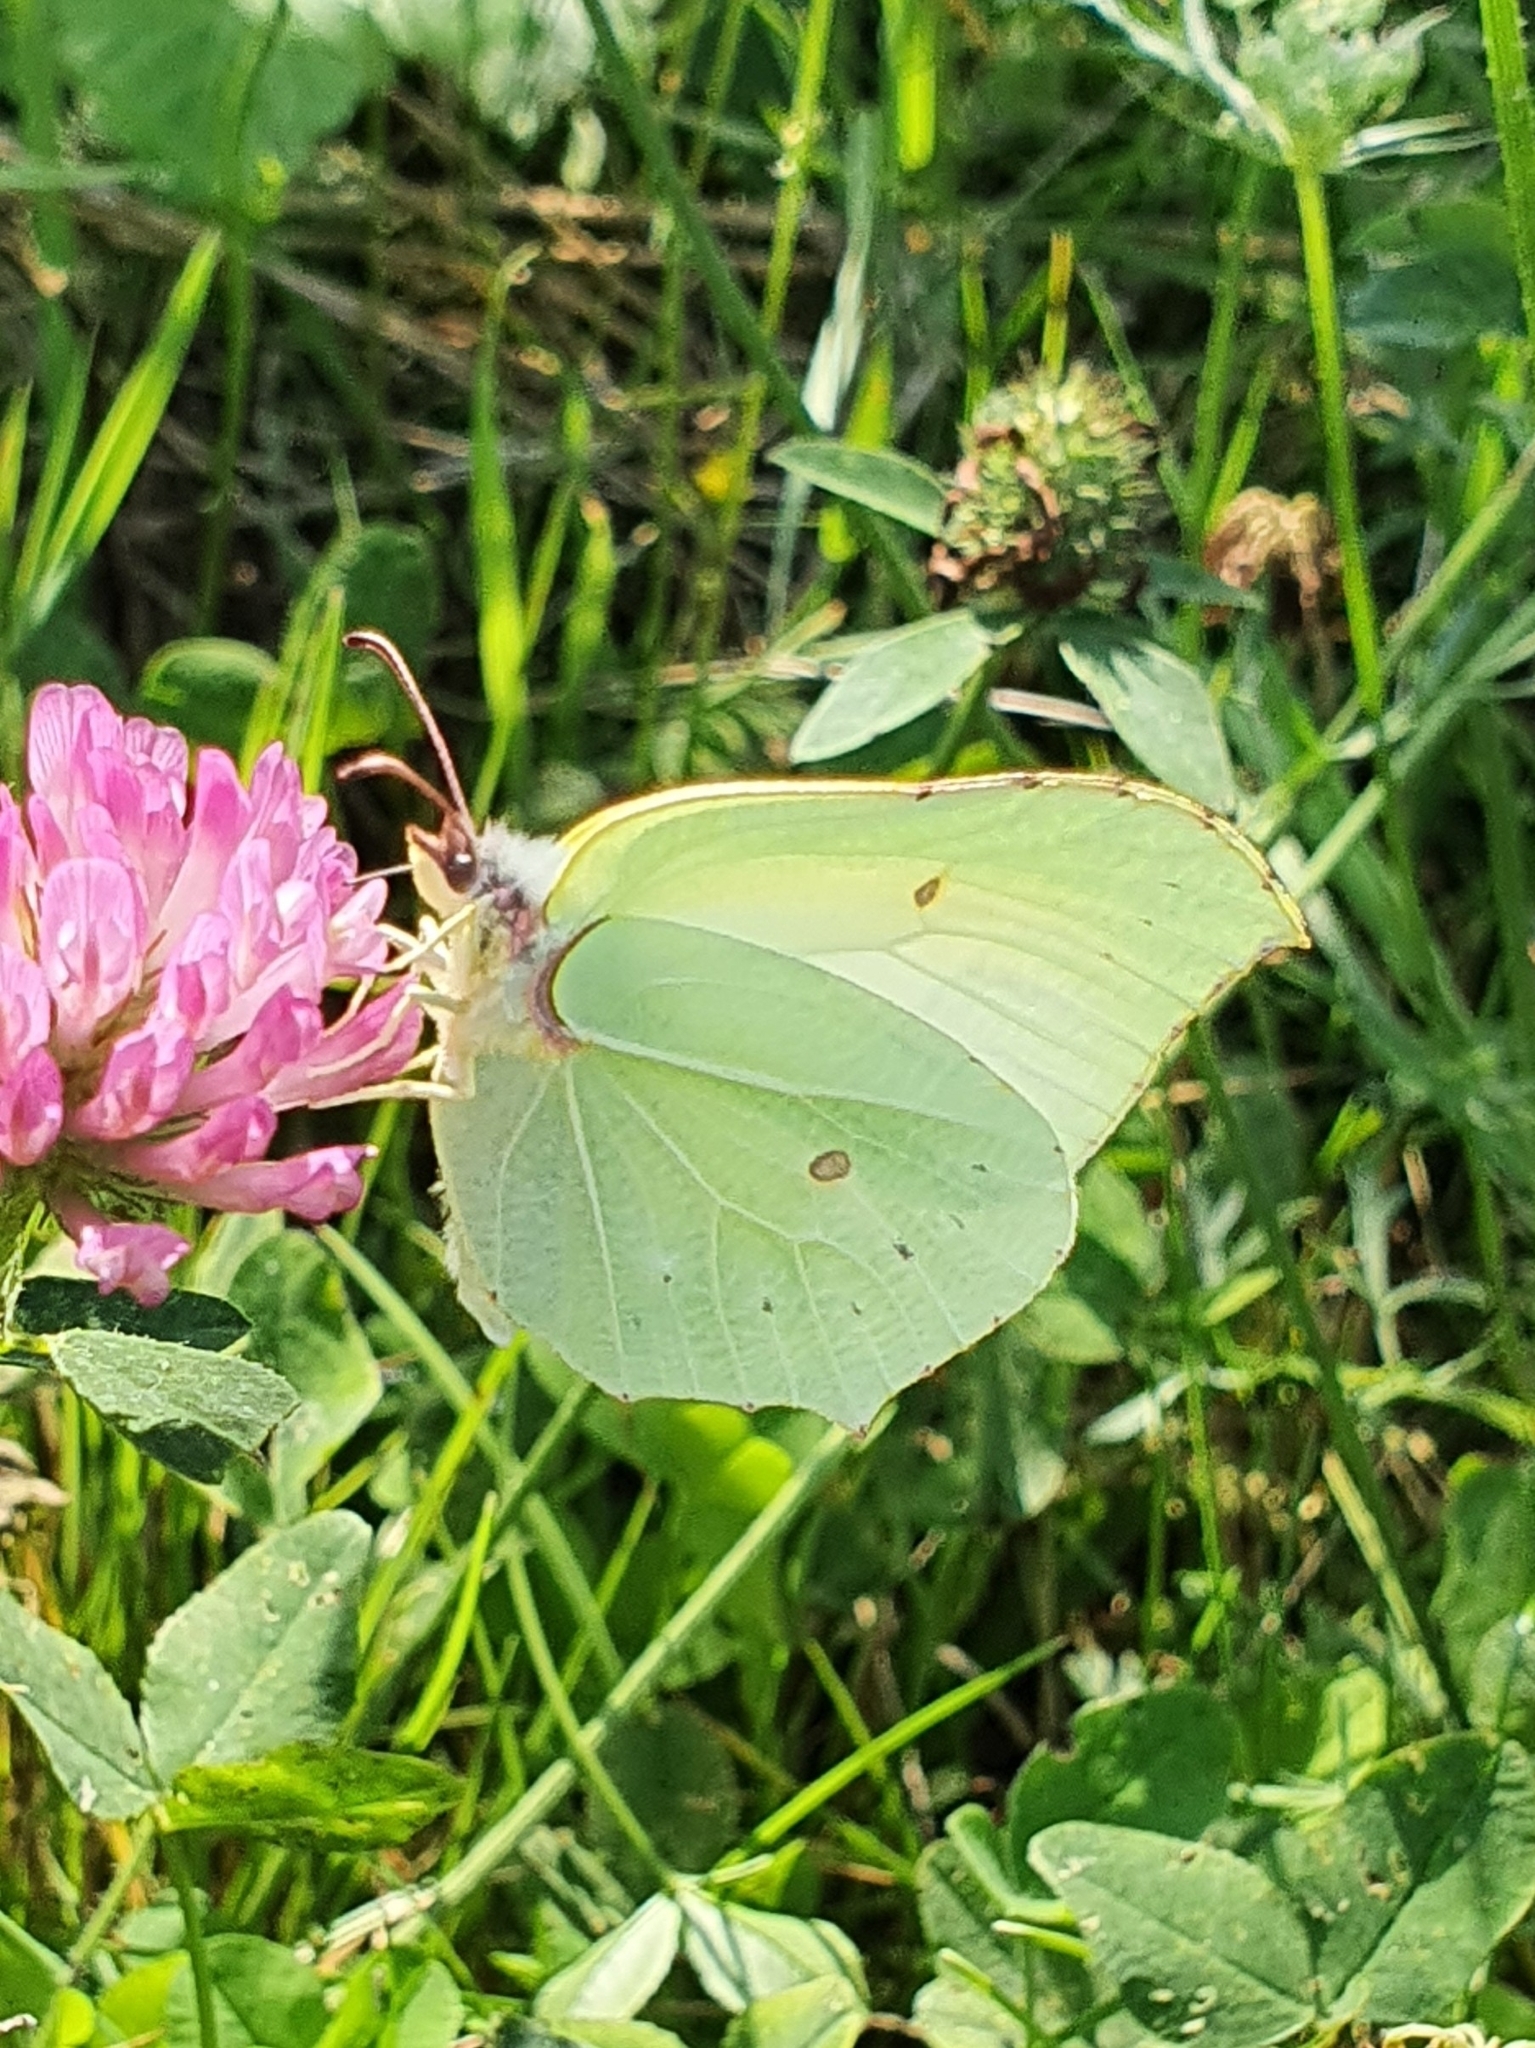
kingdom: Animalia
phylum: Arthropoda
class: Insecta
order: Lepidoptera
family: Pieridae
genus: Gonepteryx
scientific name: Gonepteryx rhamni
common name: Brimstone
